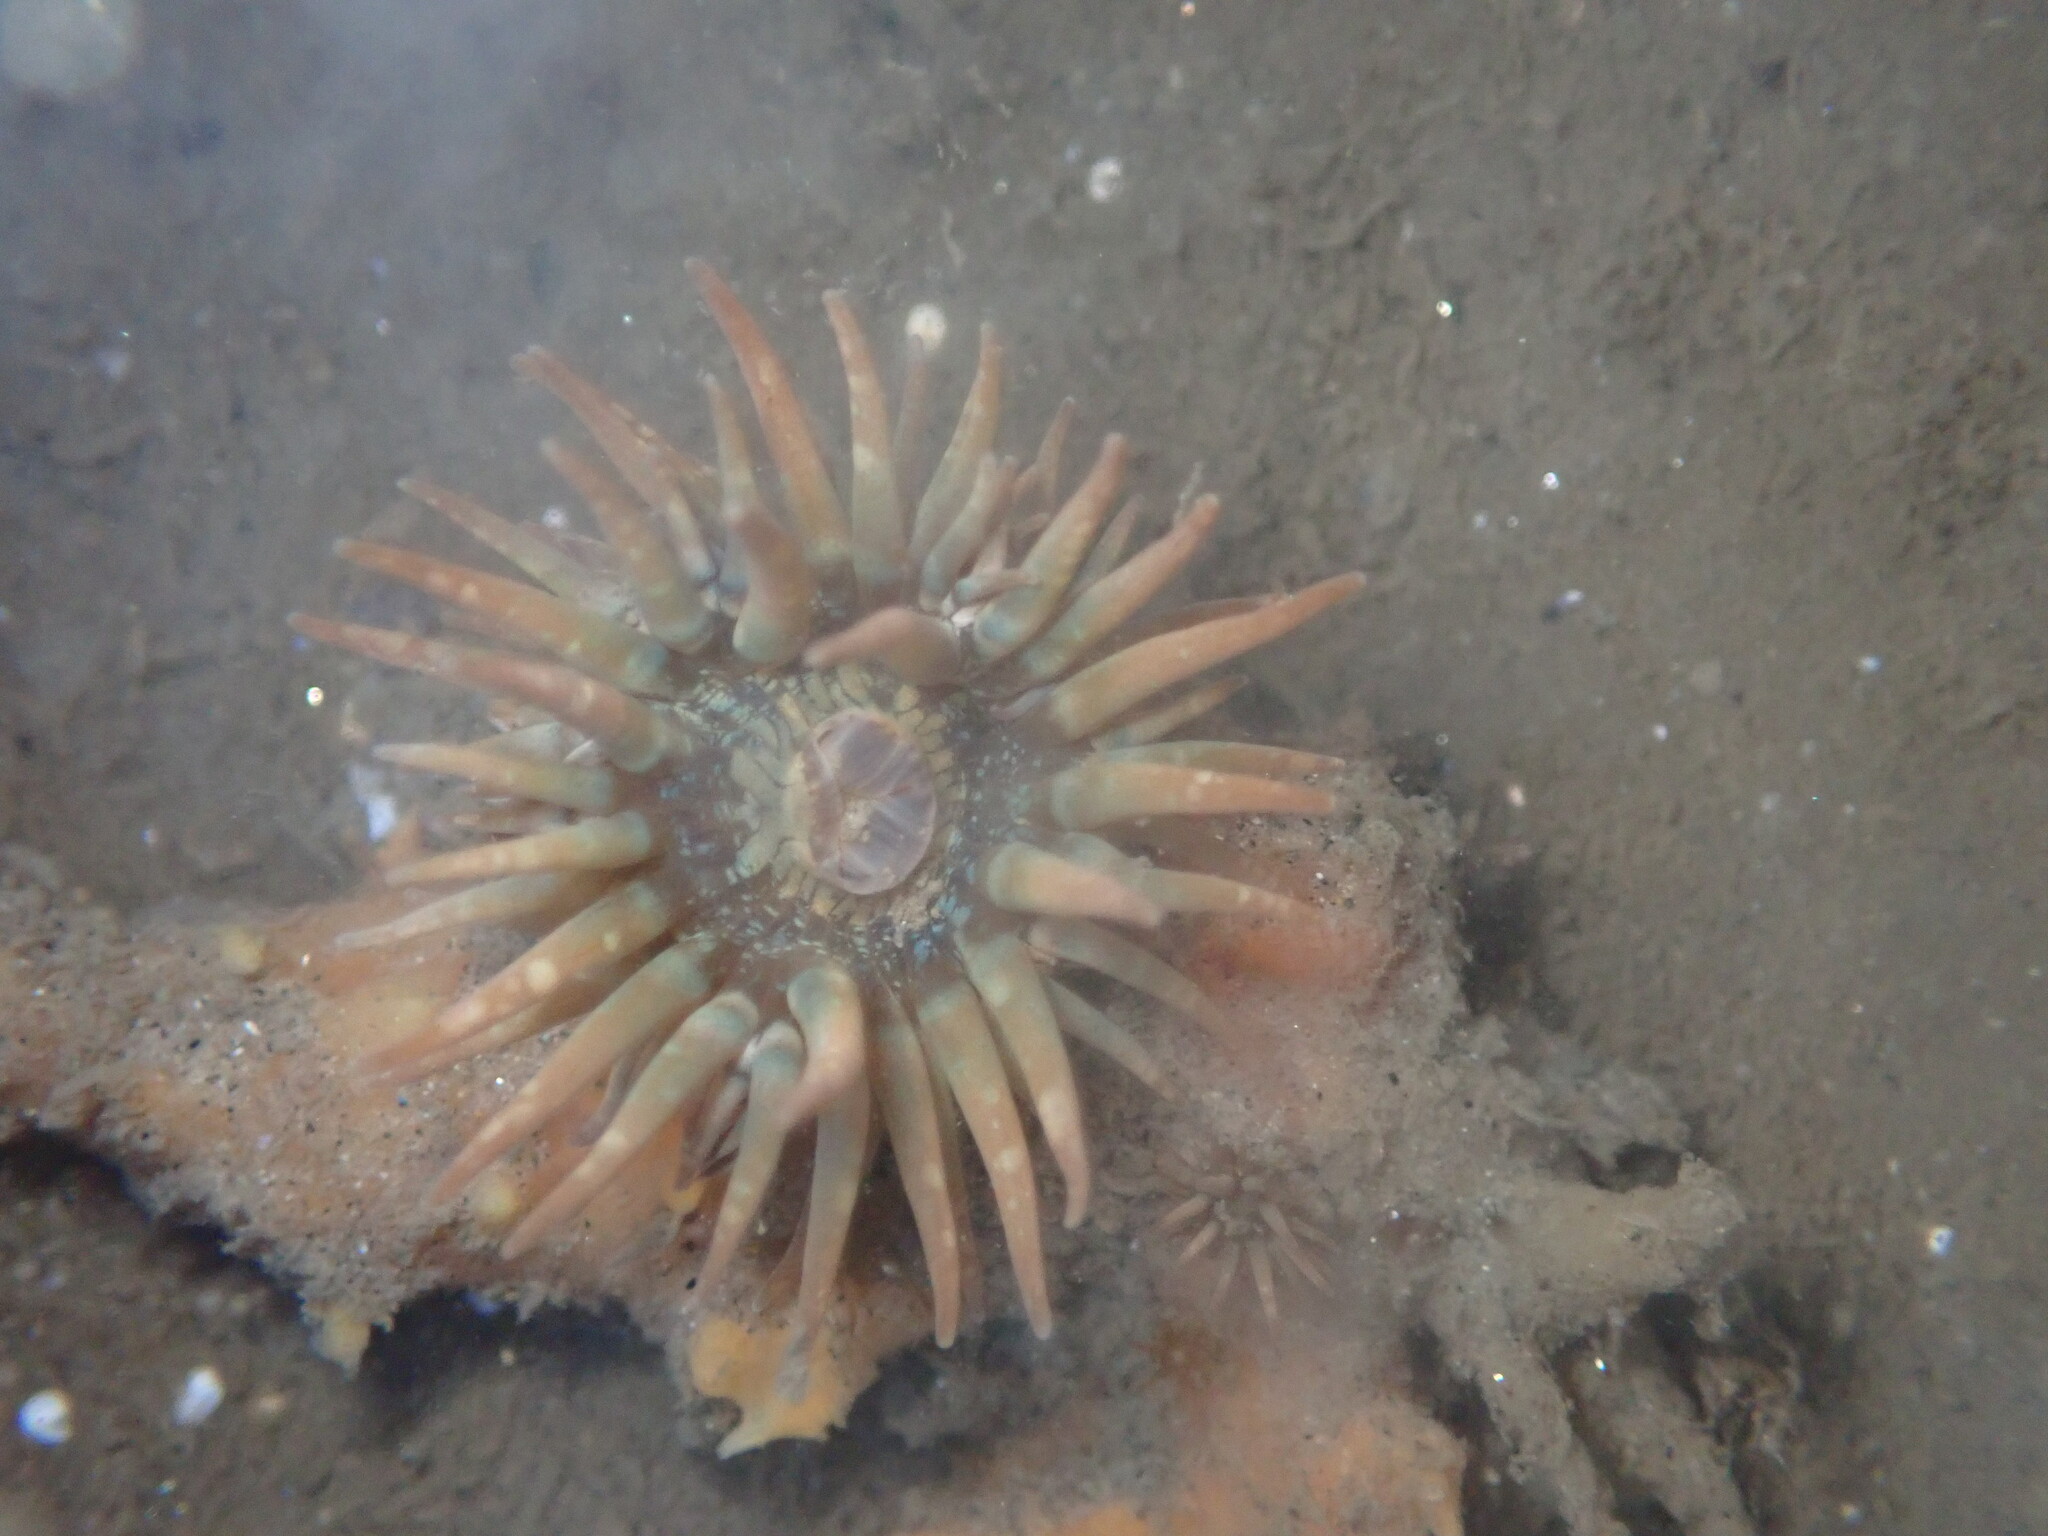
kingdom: Animalia
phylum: Cnidaria
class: Anthozoa
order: Actiniaria
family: Aiptasiidae
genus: Exaiptasia
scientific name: Exaiptasia diaphana
